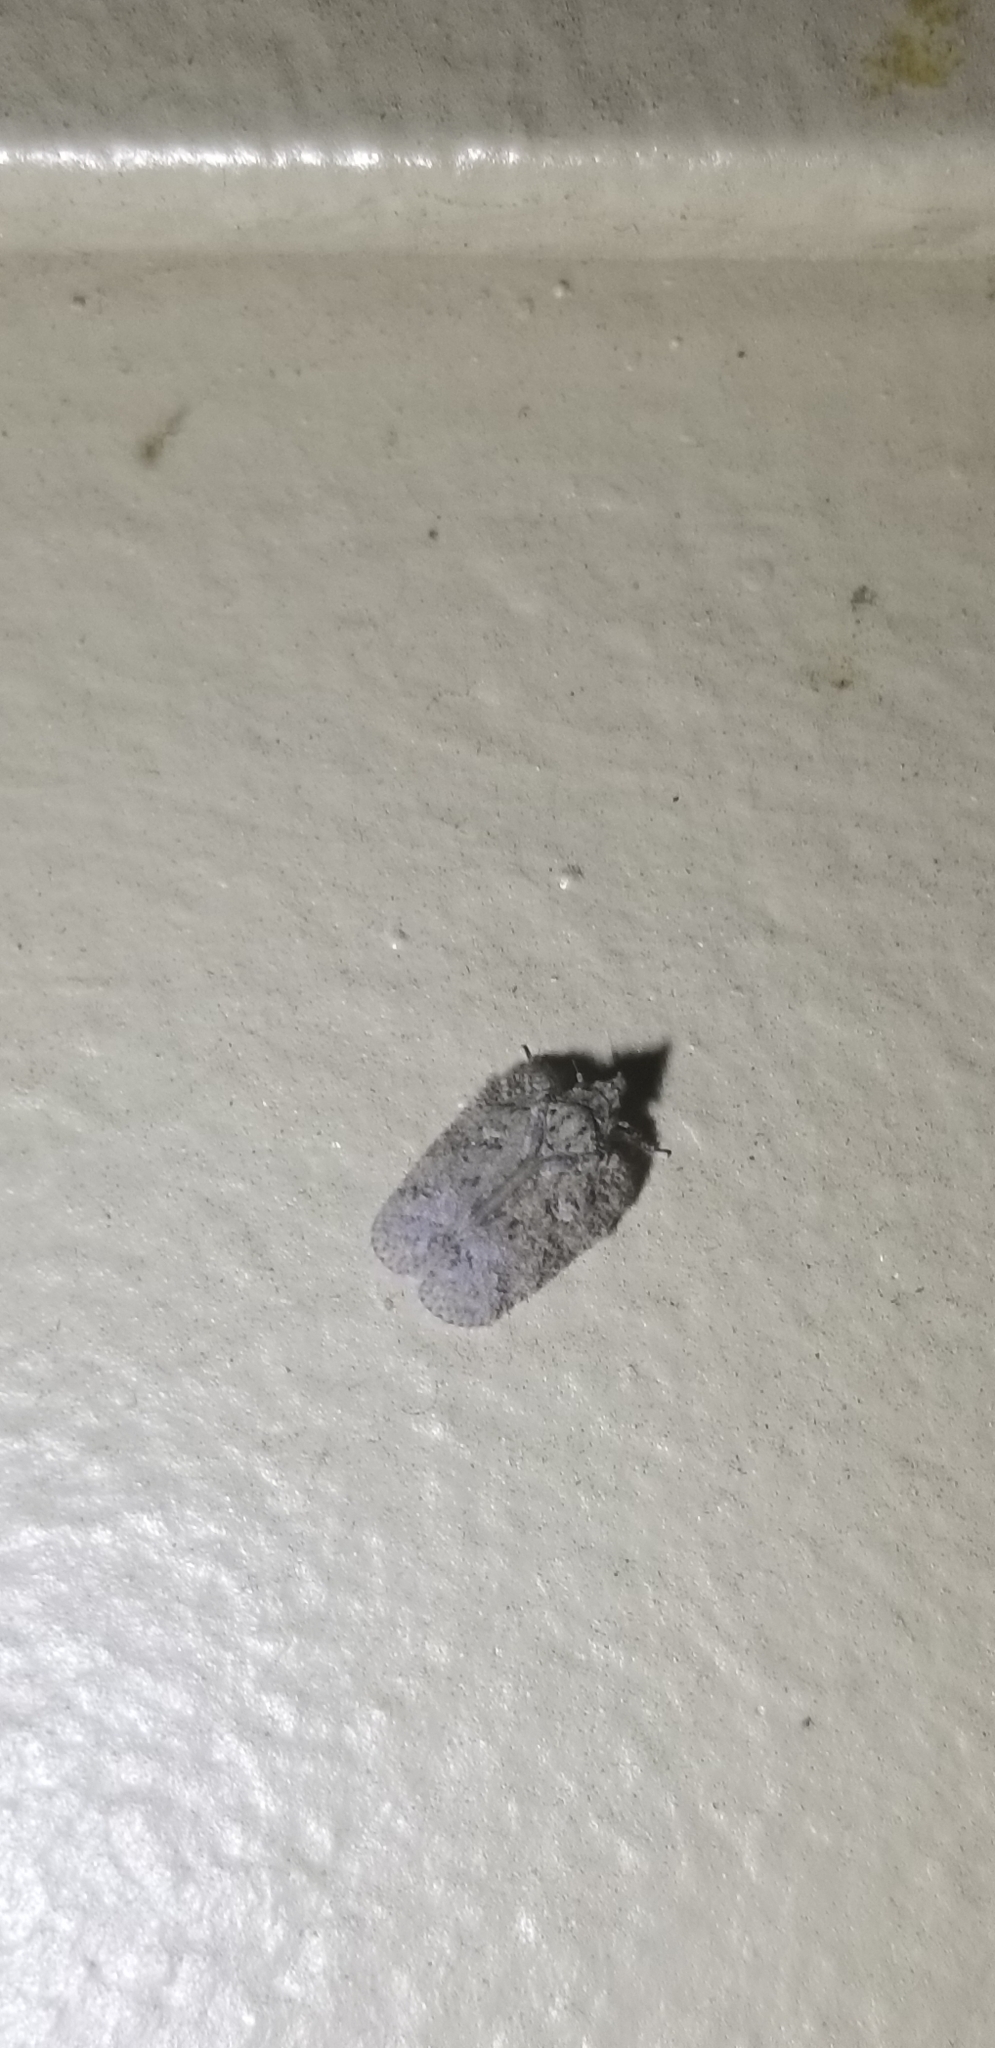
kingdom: Animalia
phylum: Arthropoda
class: Insecta
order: Hemiptera
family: Flatidae
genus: Flatoidinus
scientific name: Flatoidinus punctatus
